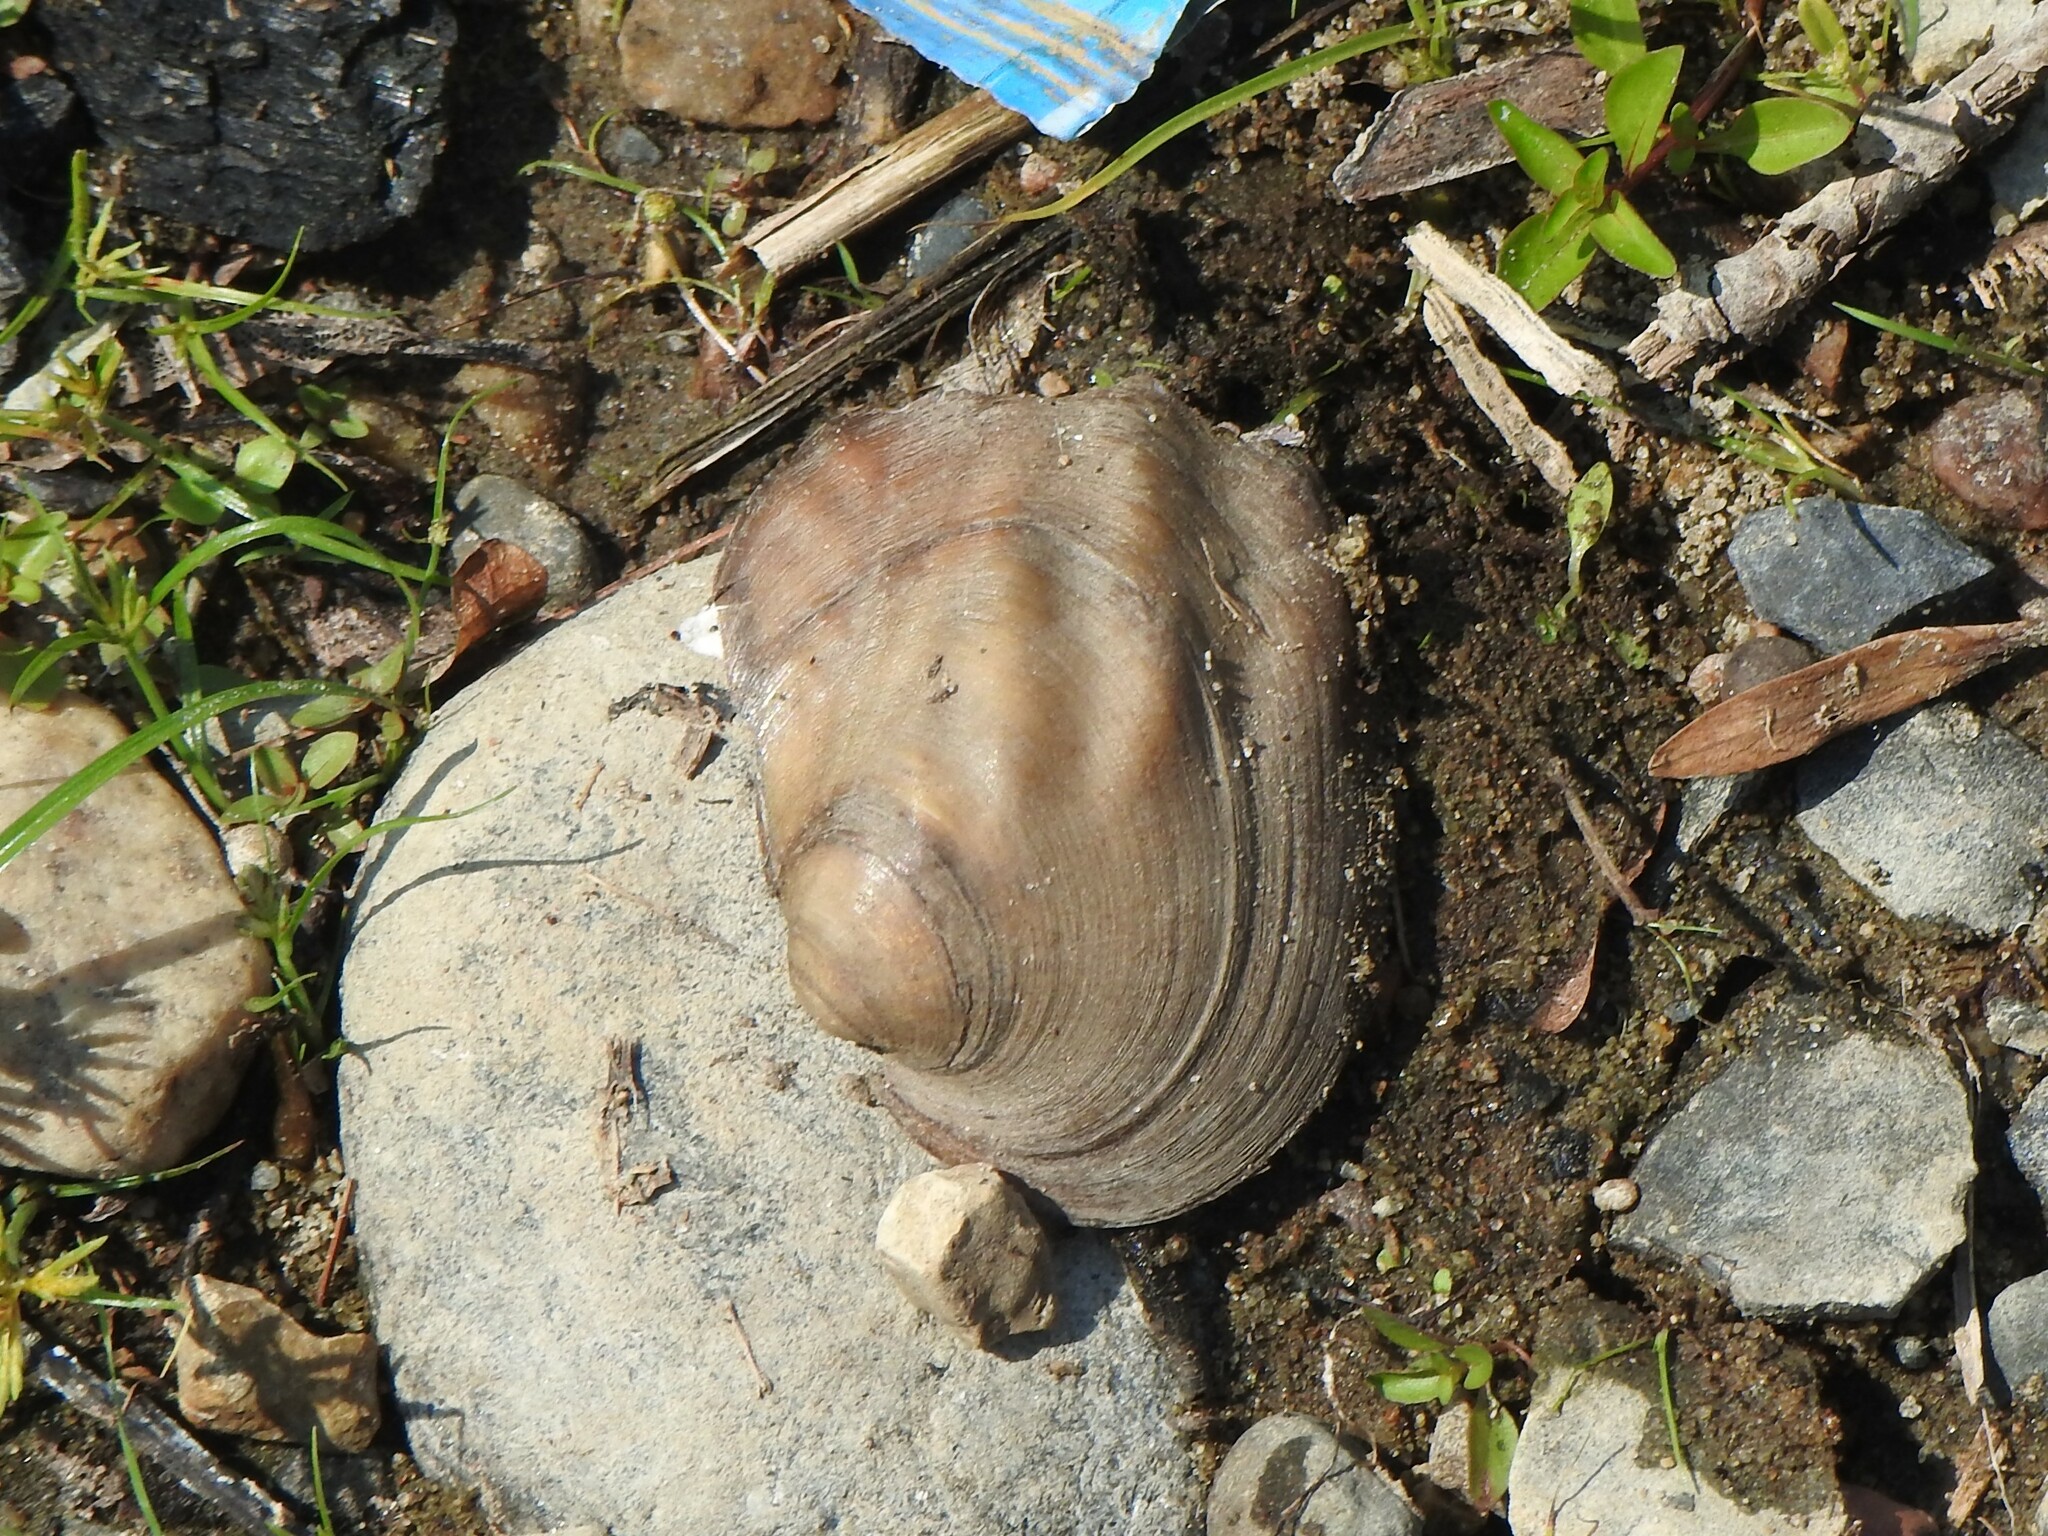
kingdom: Animalia
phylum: Mollusca
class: Bivalvia
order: Unionida
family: Unionidae
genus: Amblema
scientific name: Amblema plicata
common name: Threeridge
